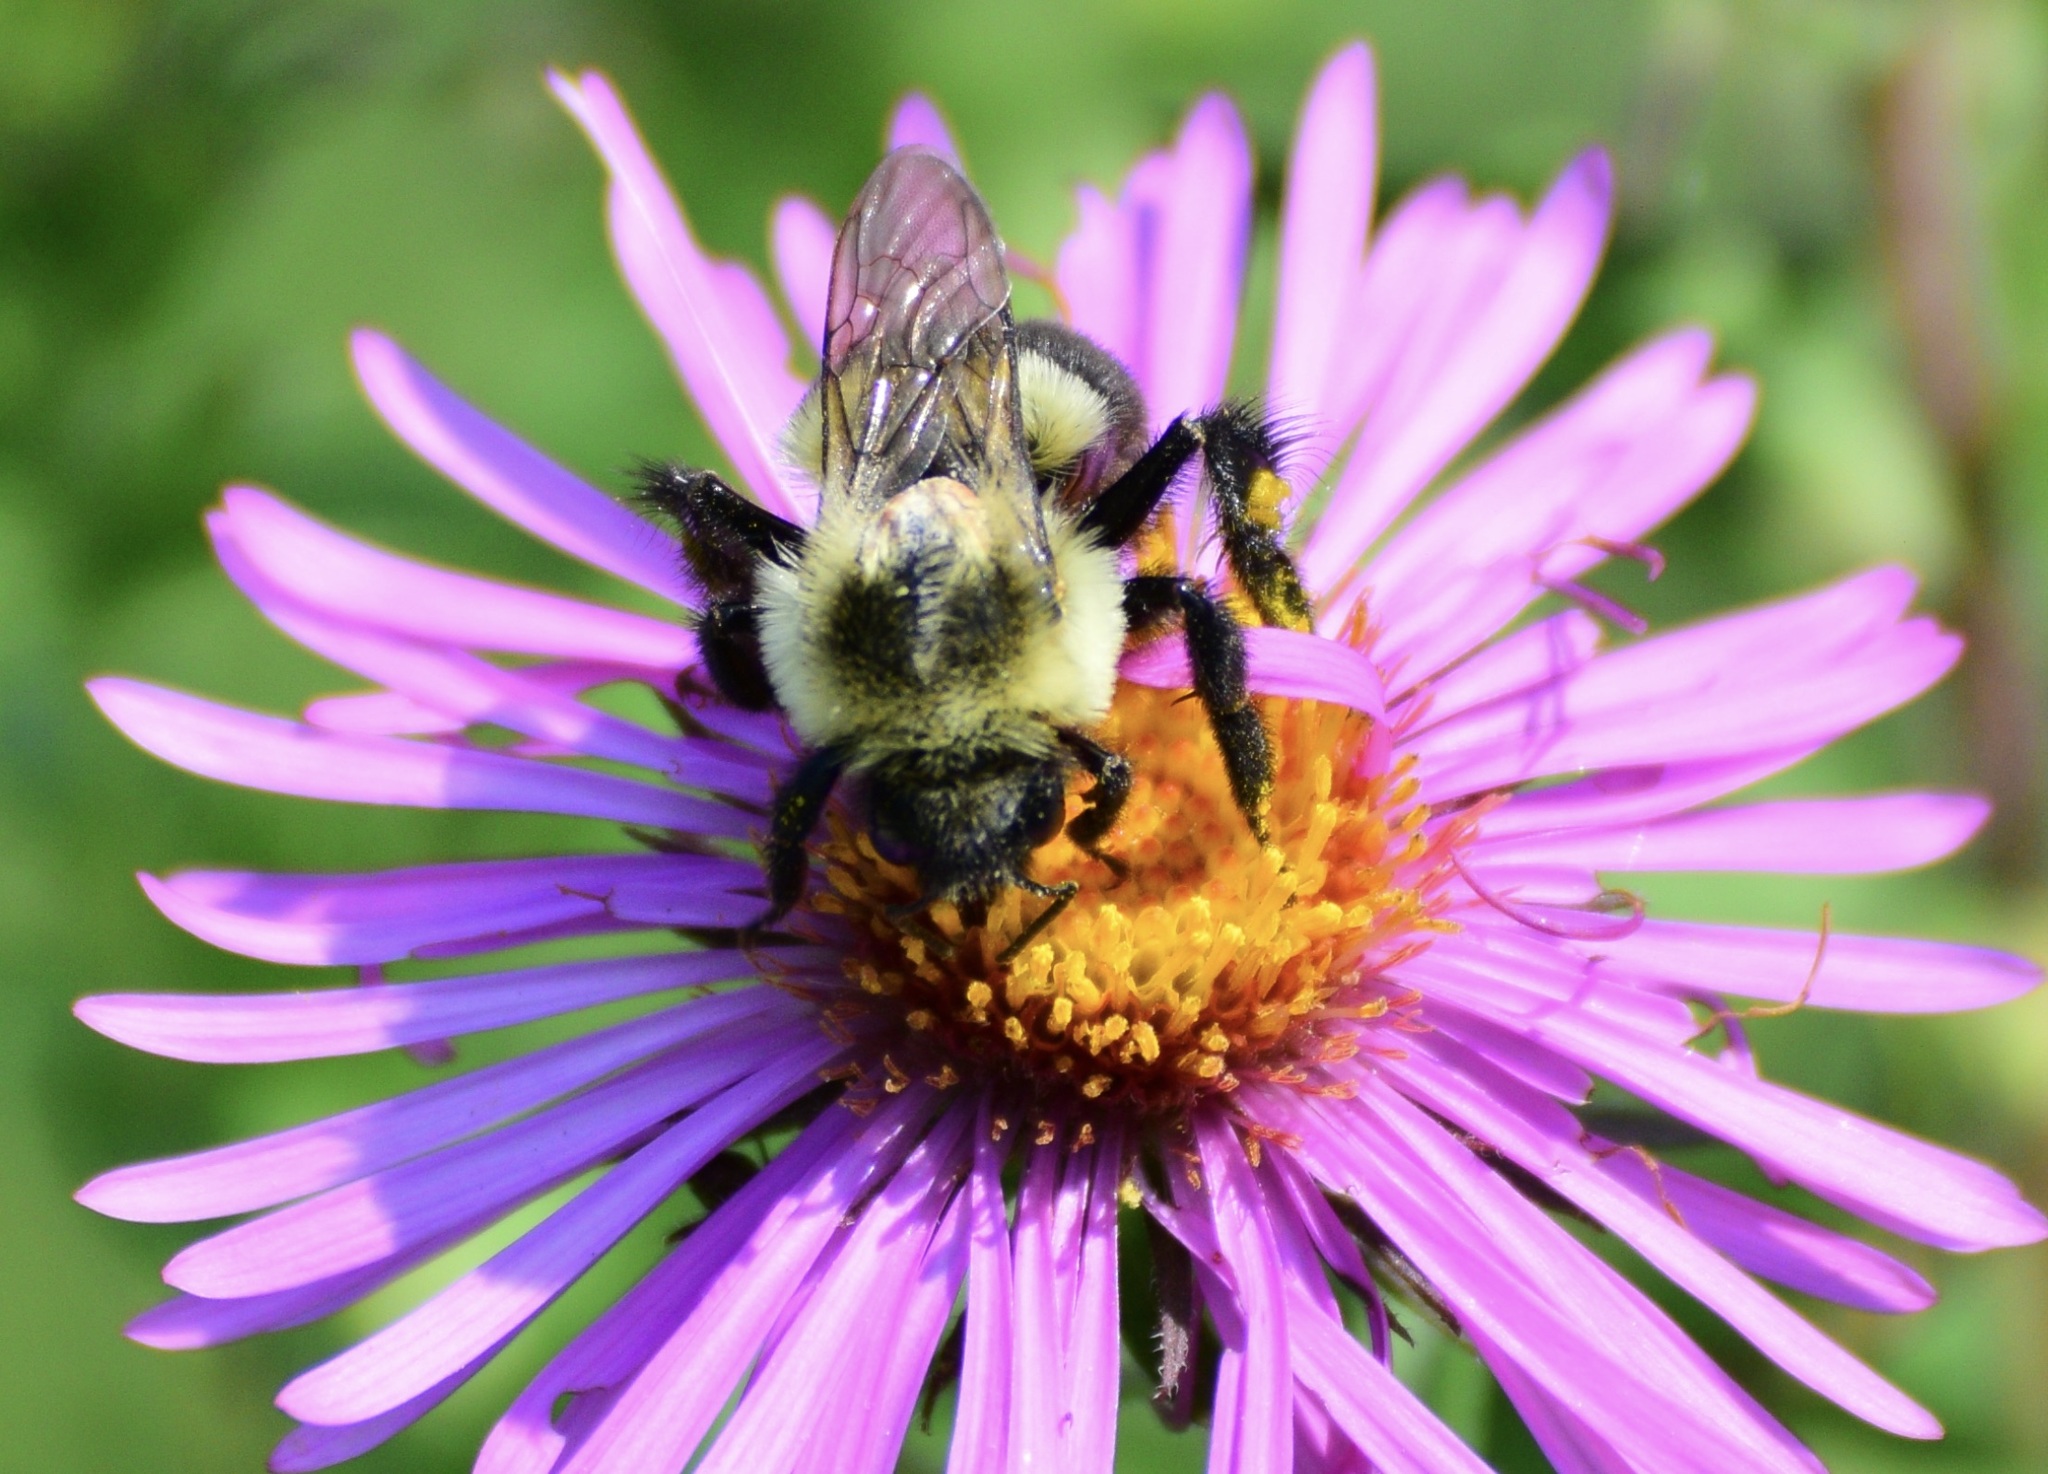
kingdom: Animalia
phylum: Arthropoda
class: Insecta
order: Hymenoptera
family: Apidae
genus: Bombus
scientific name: Bombus impatiens
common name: Common eastern bumble bee
